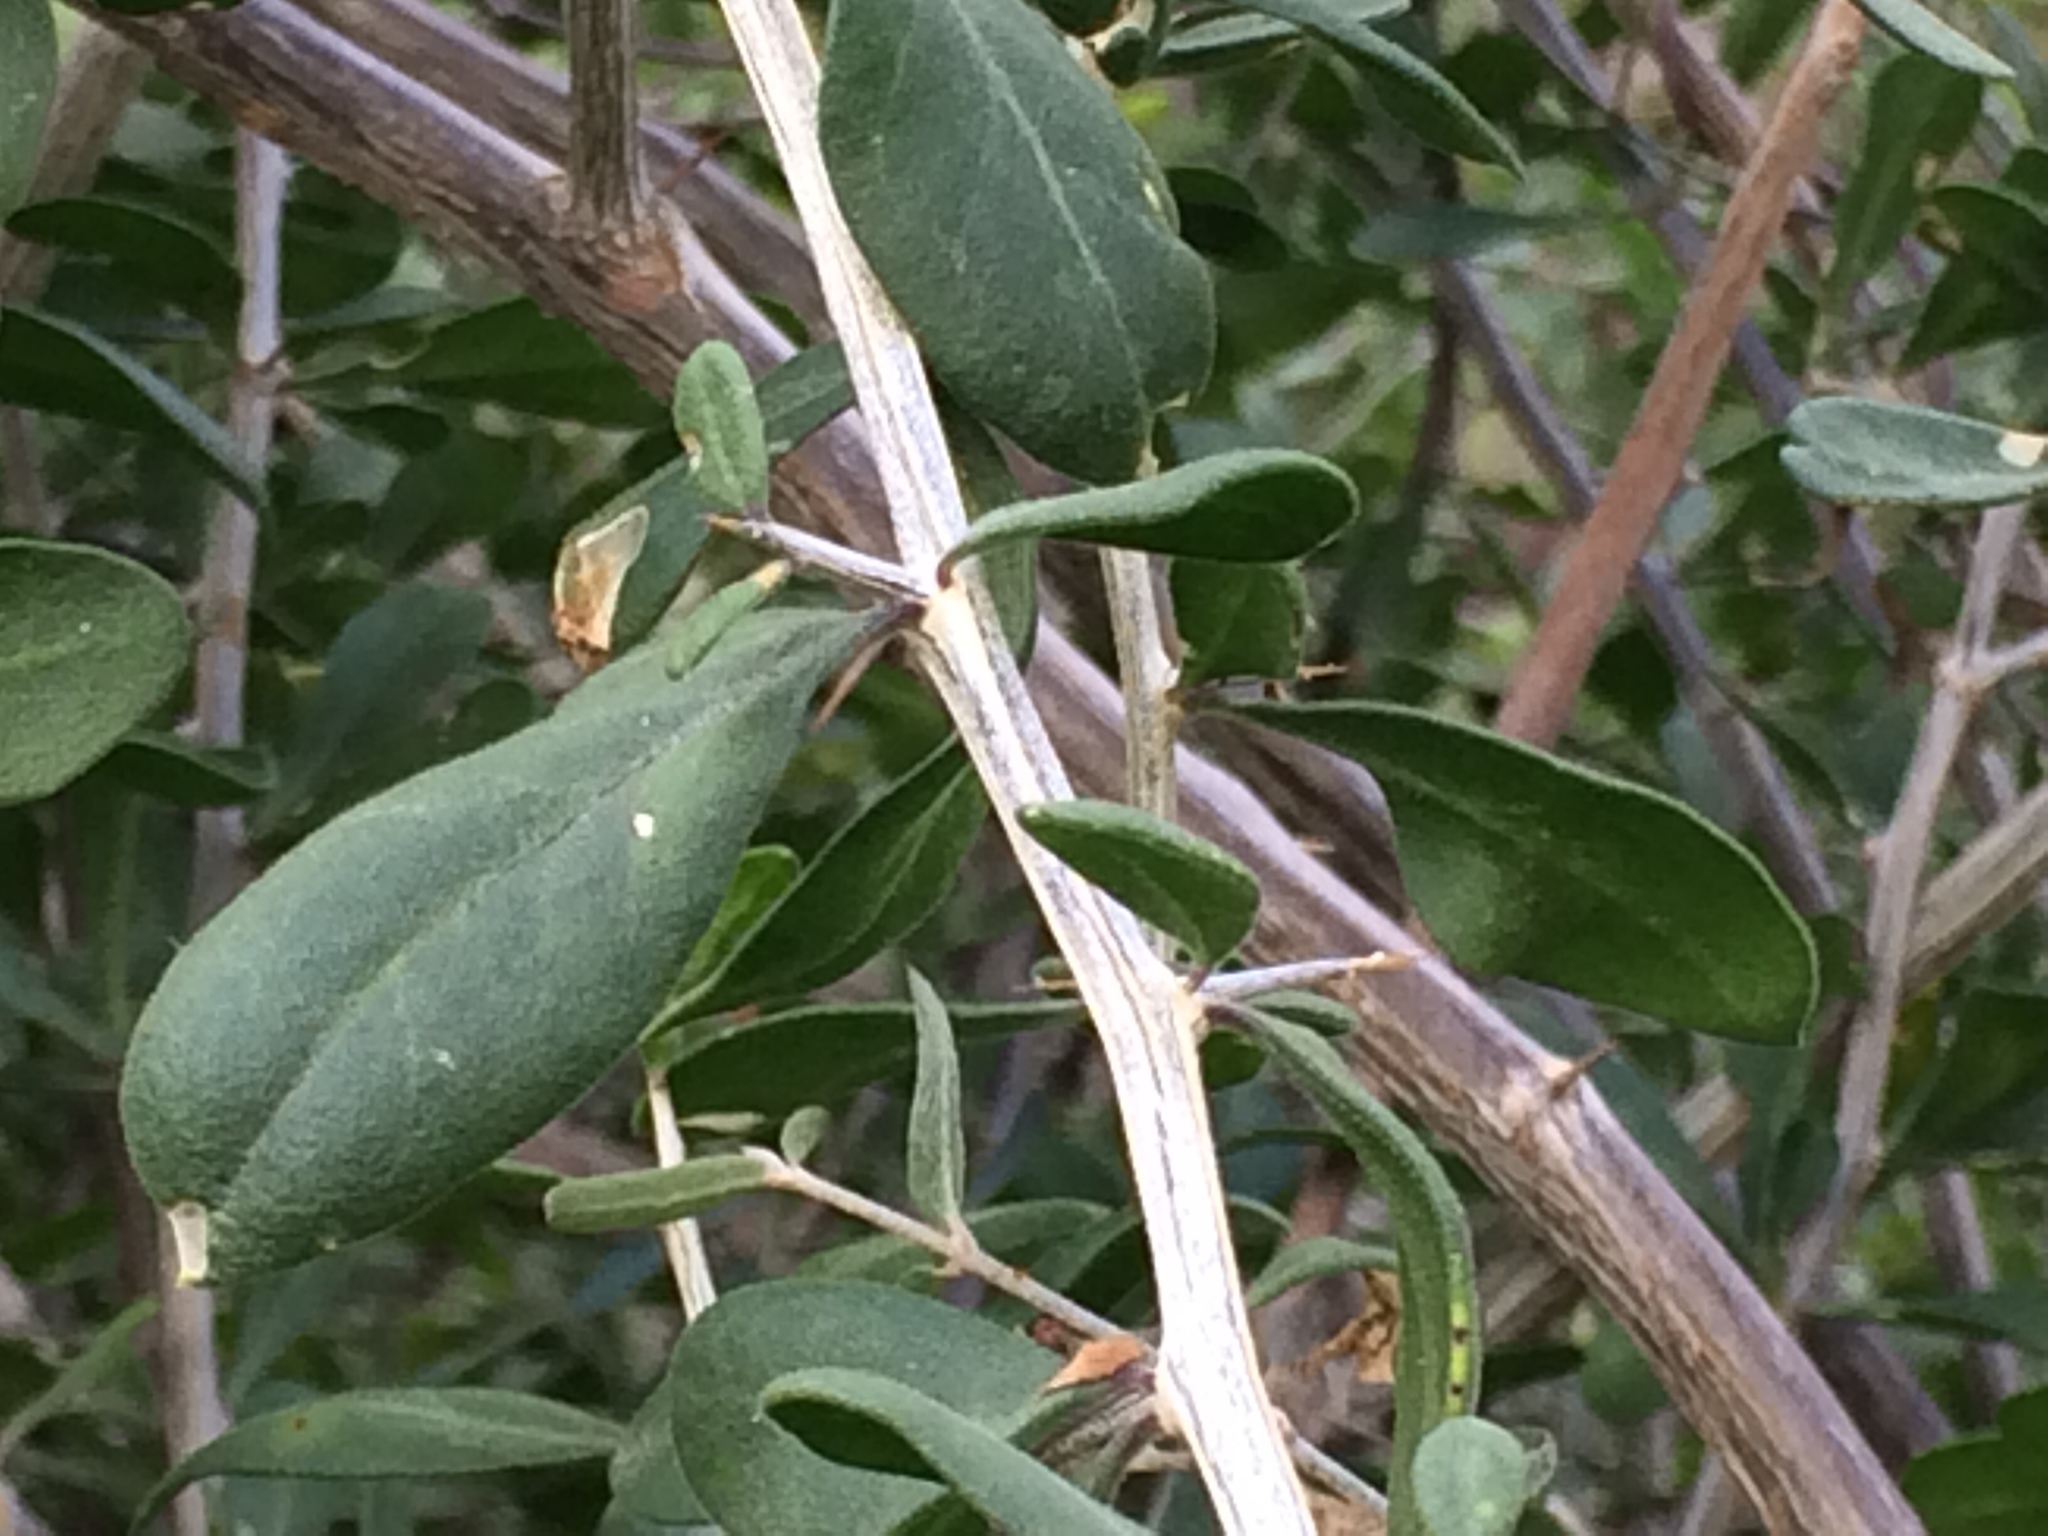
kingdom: Plantae
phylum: Tracheophyta
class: Magnoliopsida
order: Solanales
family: Solanaceae
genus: Lycium
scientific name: Lycium
